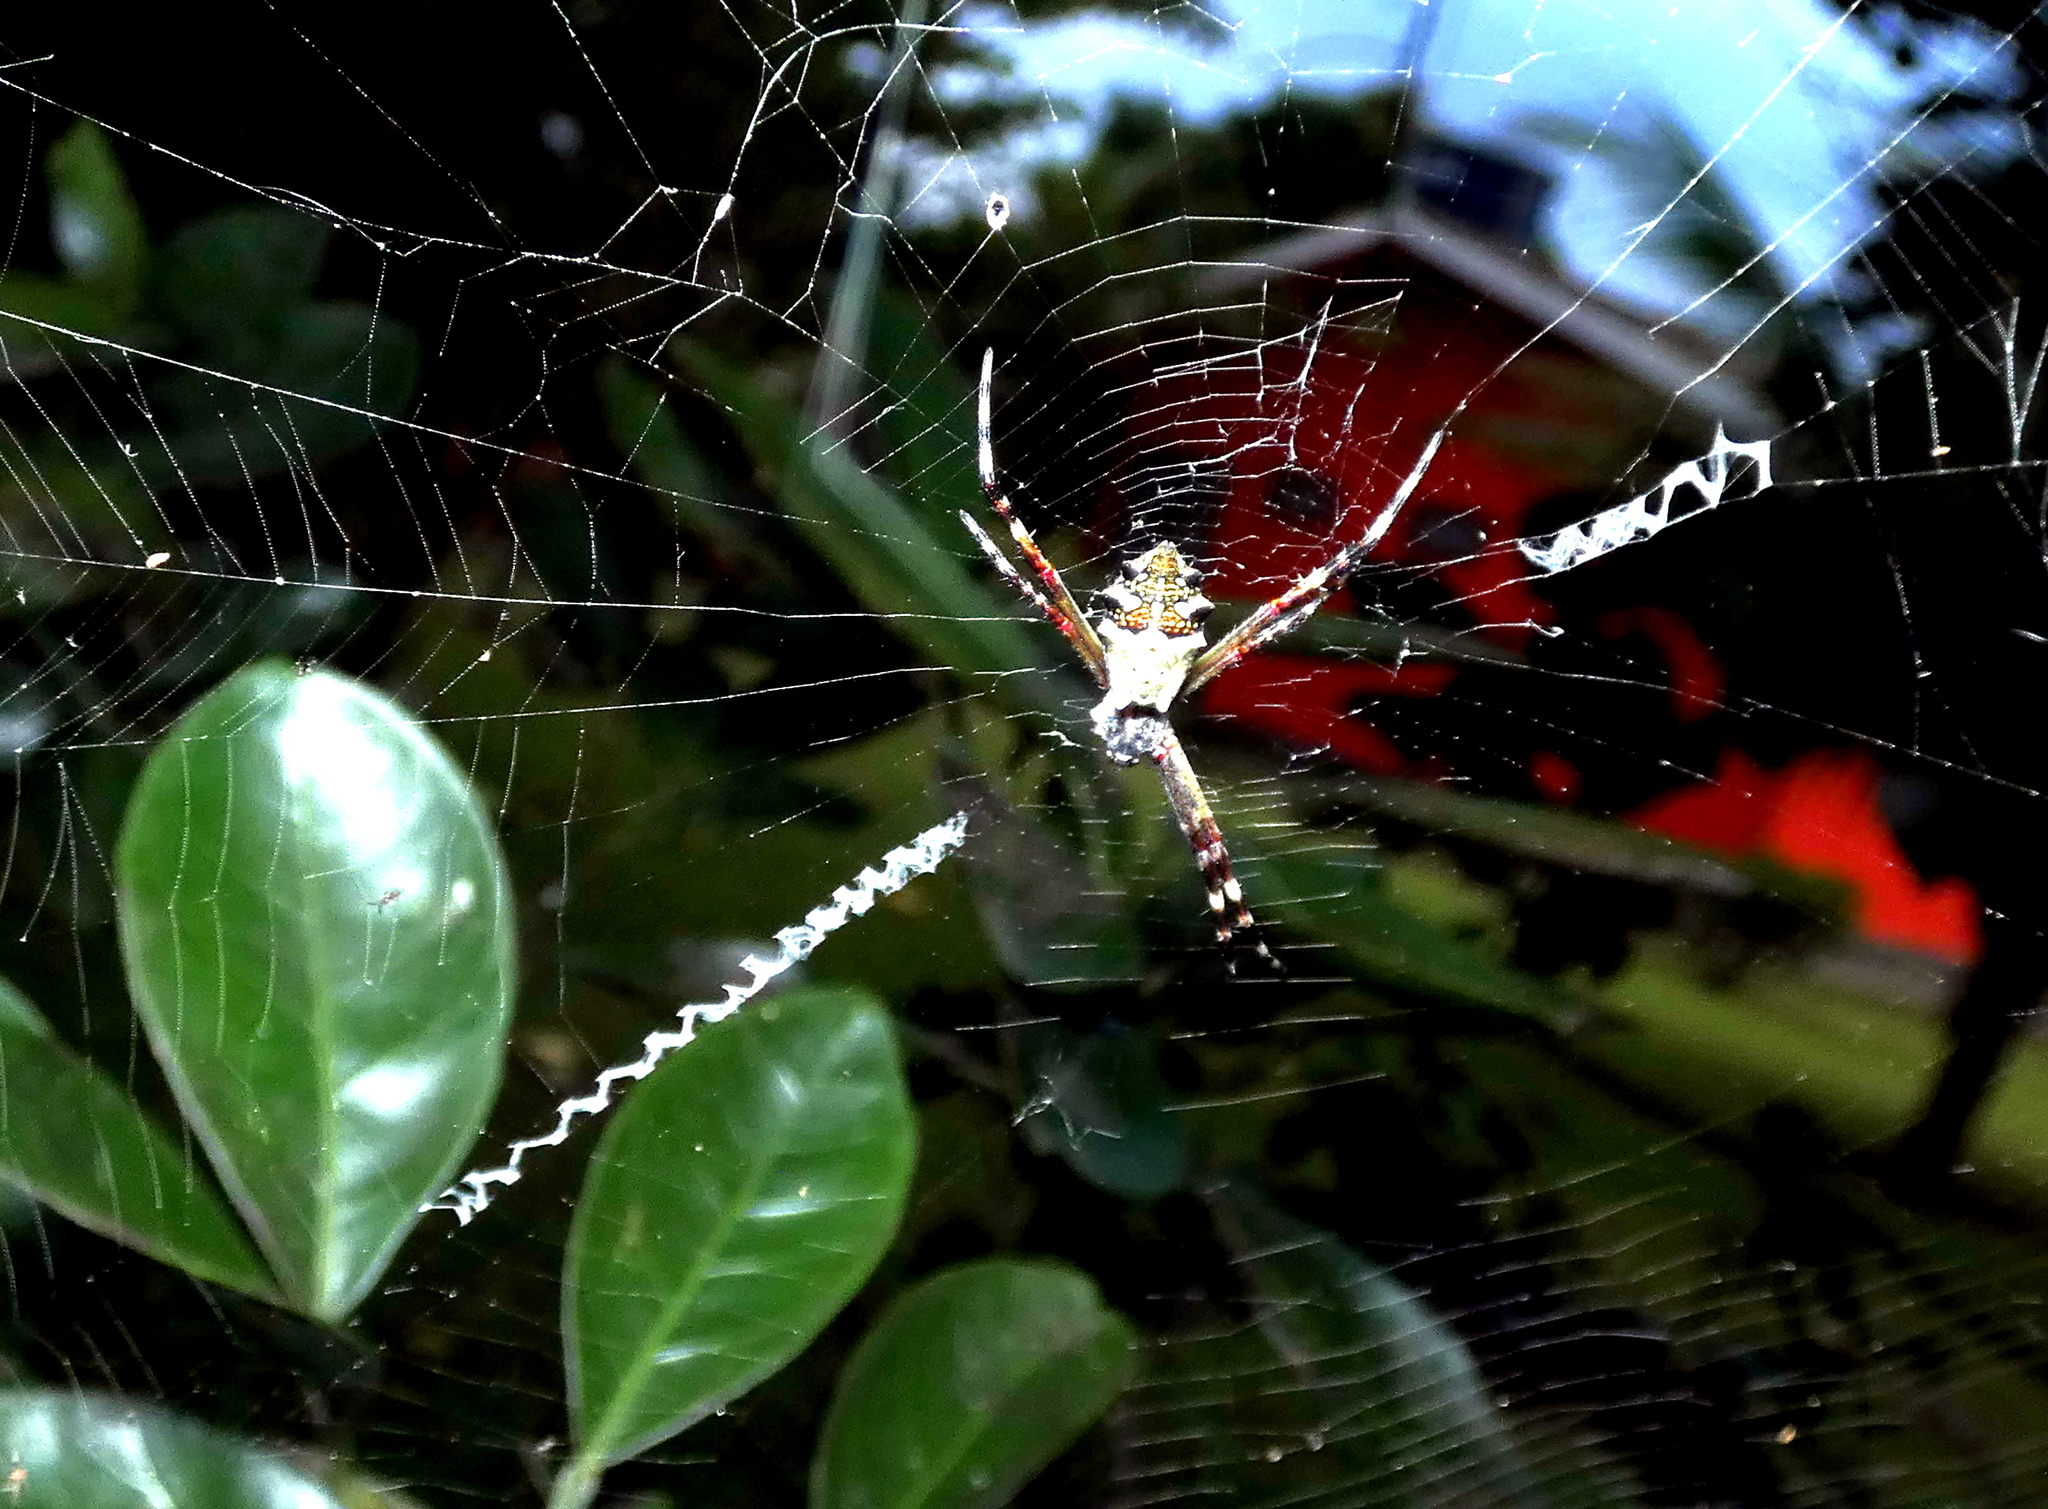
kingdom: Animalia
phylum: Arthropoda
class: Arachnida
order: Araneae
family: Araneidae
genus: Argiope
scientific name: Argiope argentata
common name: Orb weavers
